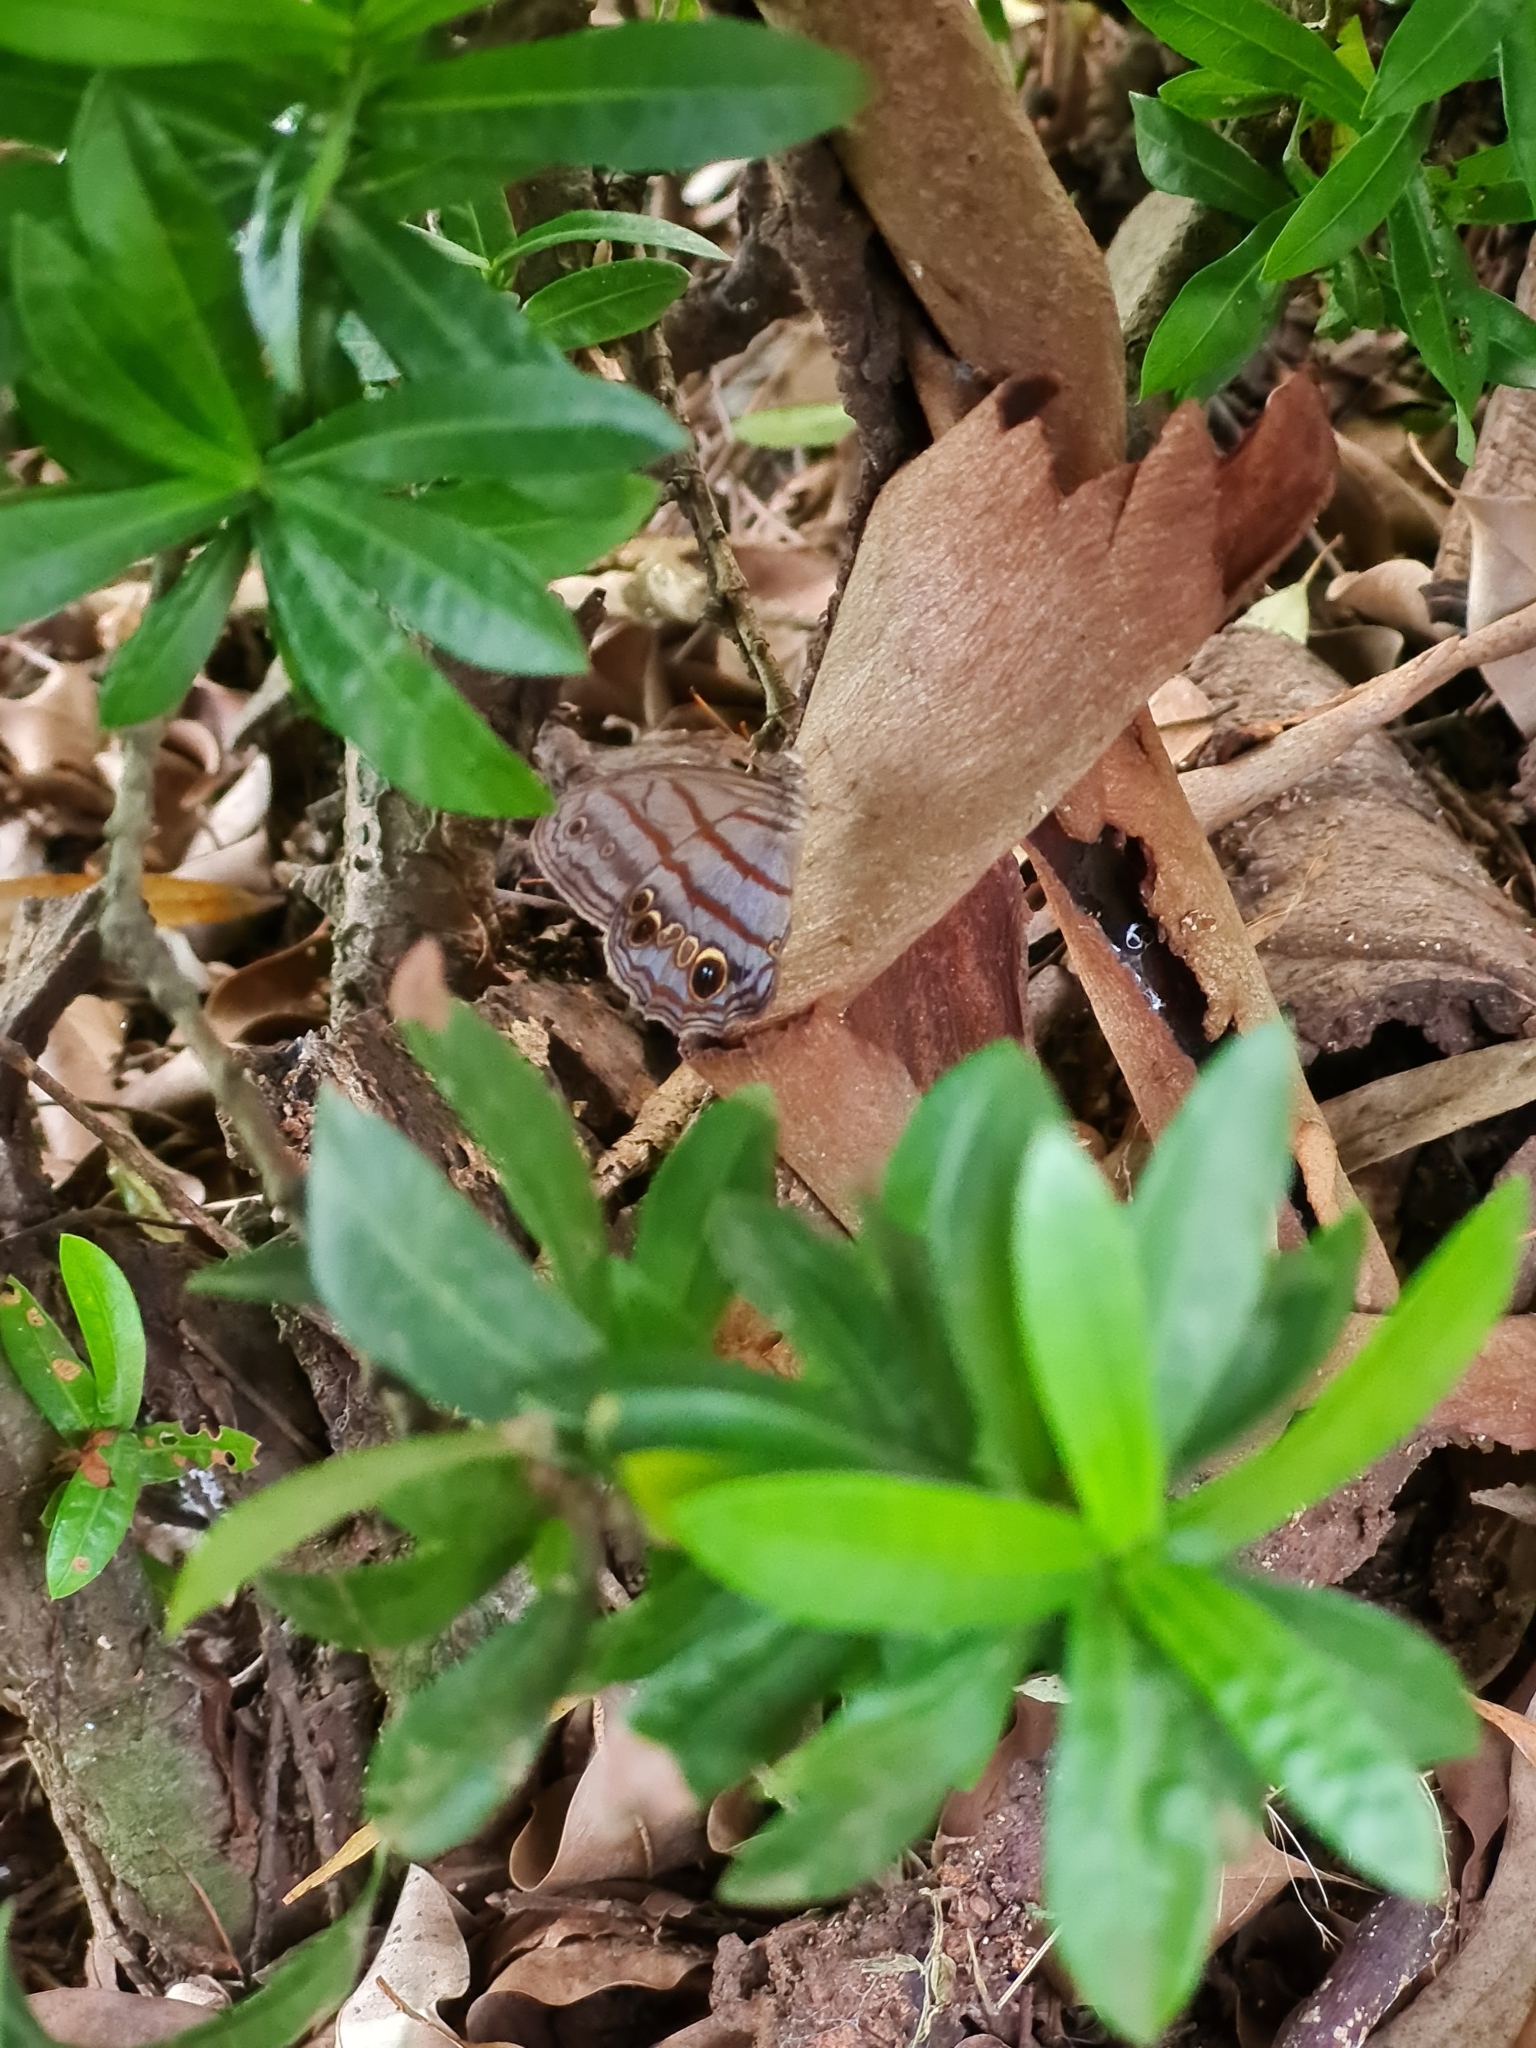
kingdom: Animalia
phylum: Arthropoda
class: Insecta
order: Lepidoptera
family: Nymphalidae
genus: Magneuptychia
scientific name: Magneuptychia libye
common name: Blue-gray satyr
